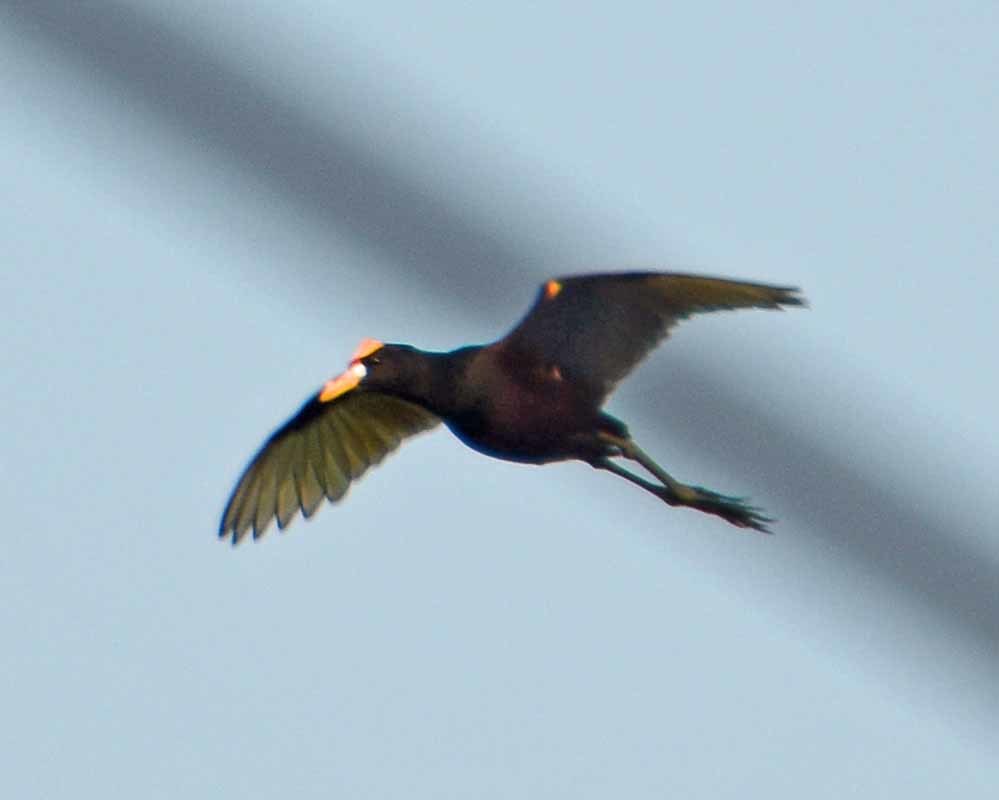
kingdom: Animalia
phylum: Chordata
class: Aves
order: Charadriiformes
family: Jacanidae
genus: Jacana
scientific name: Jacana spinosa
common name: Northern jacana
